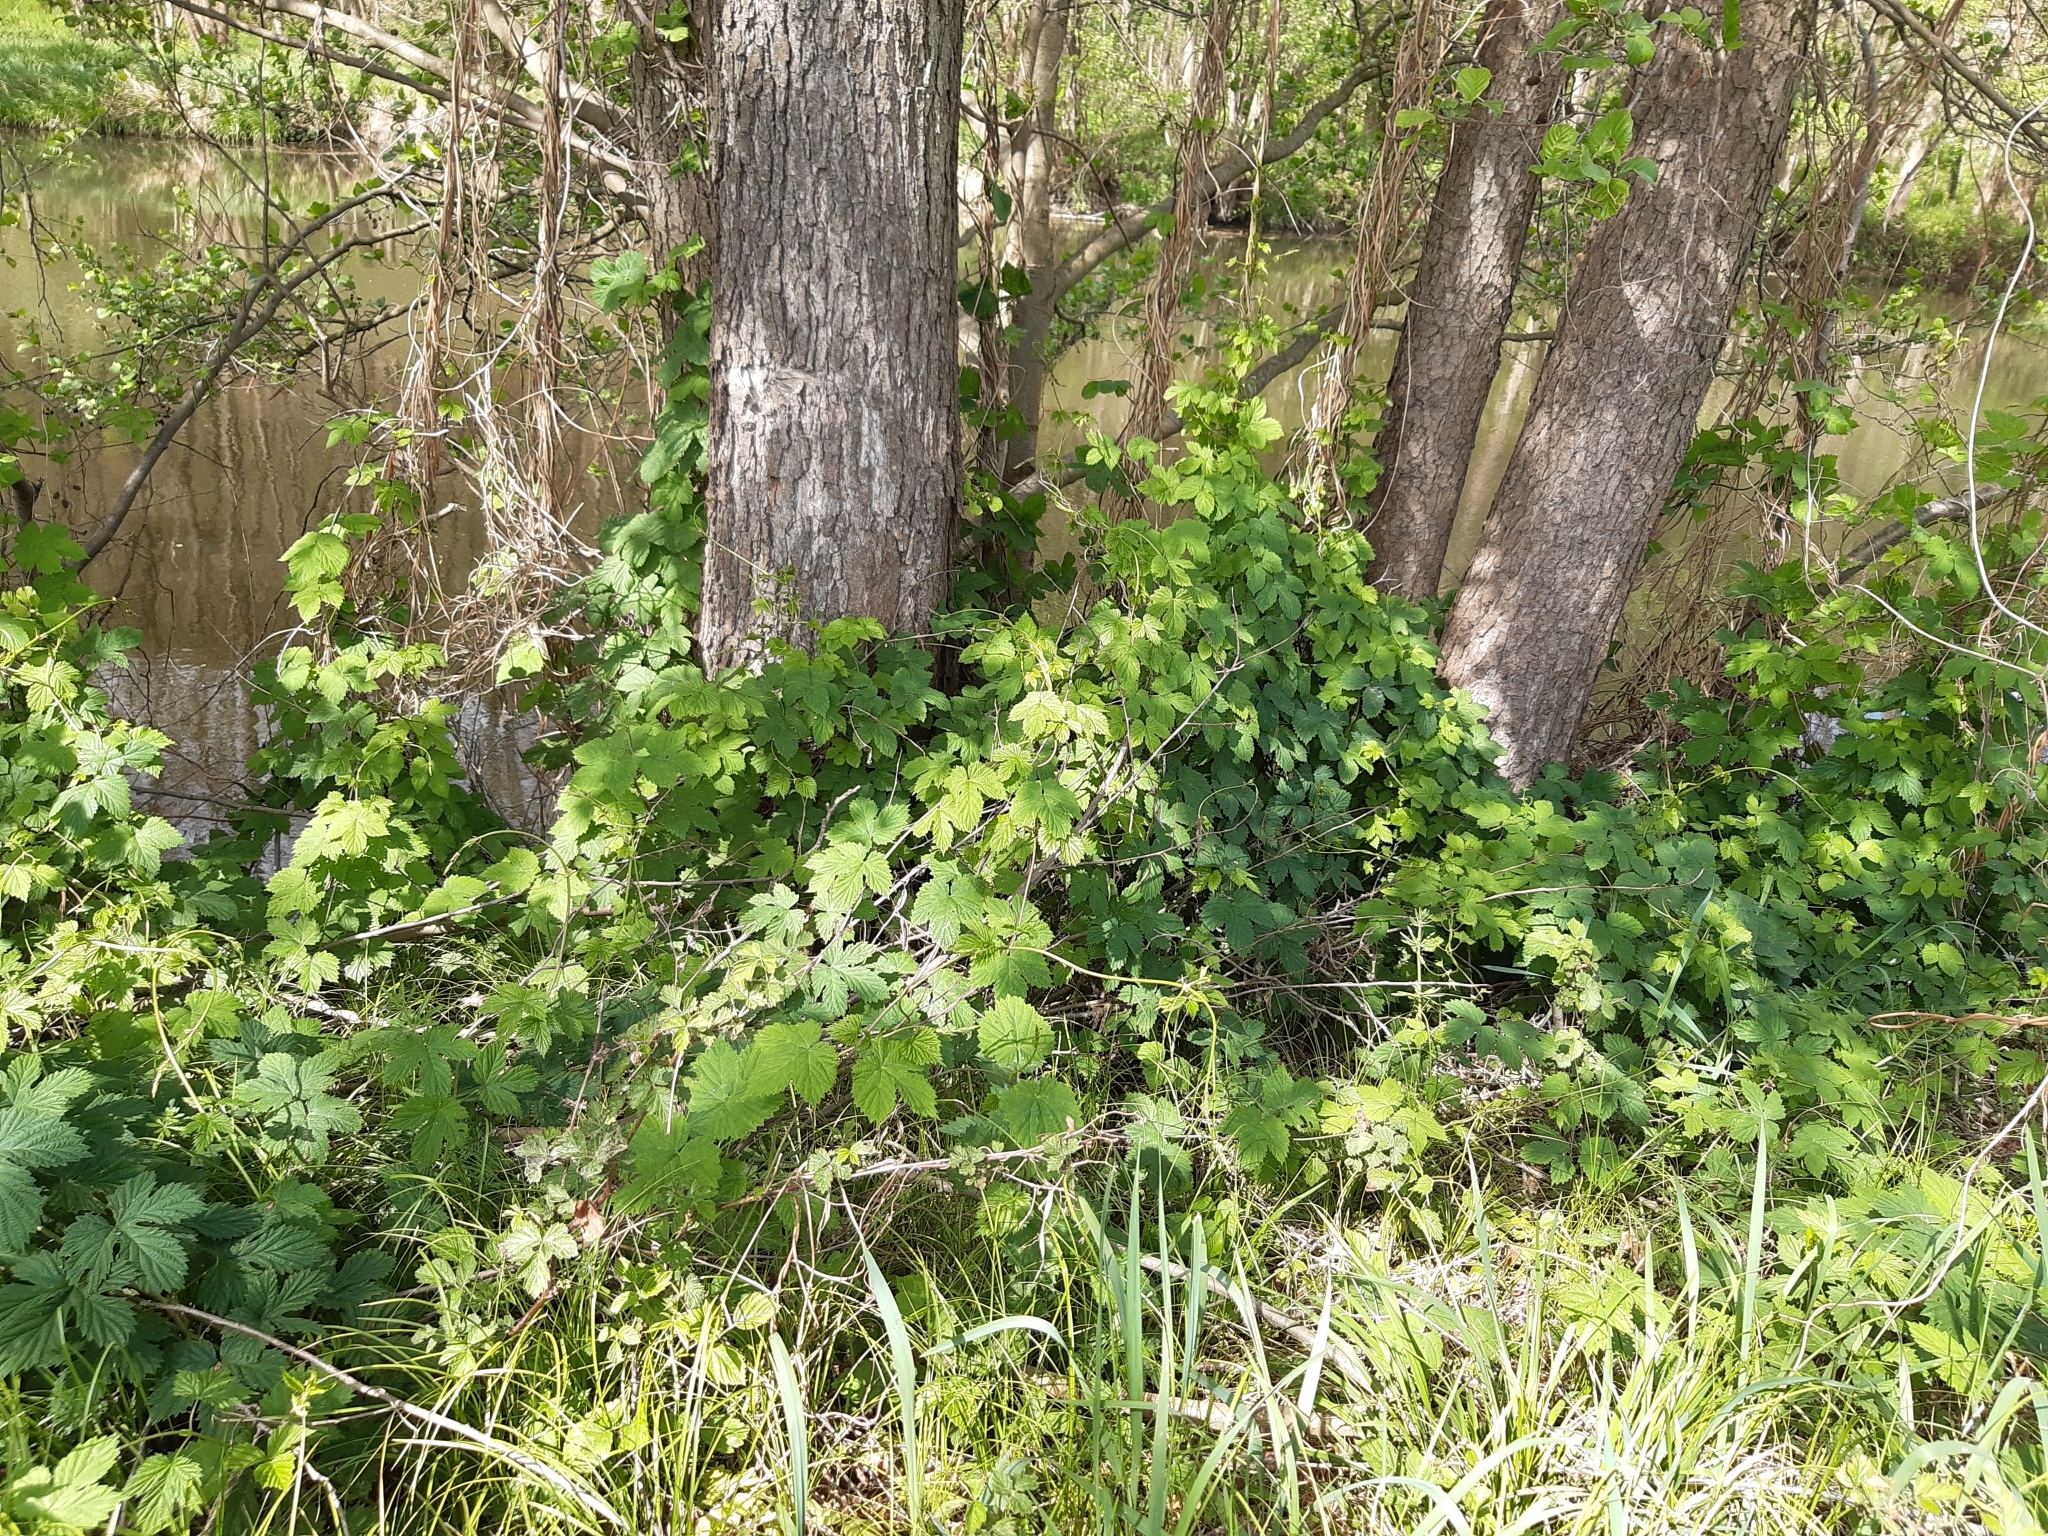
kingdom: Plantae
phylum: Tracheophyta
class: Magnoliopsida
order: Rosales
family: Cannabaceae
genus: Humulus
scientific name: Humulus lupulus
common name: Hop
